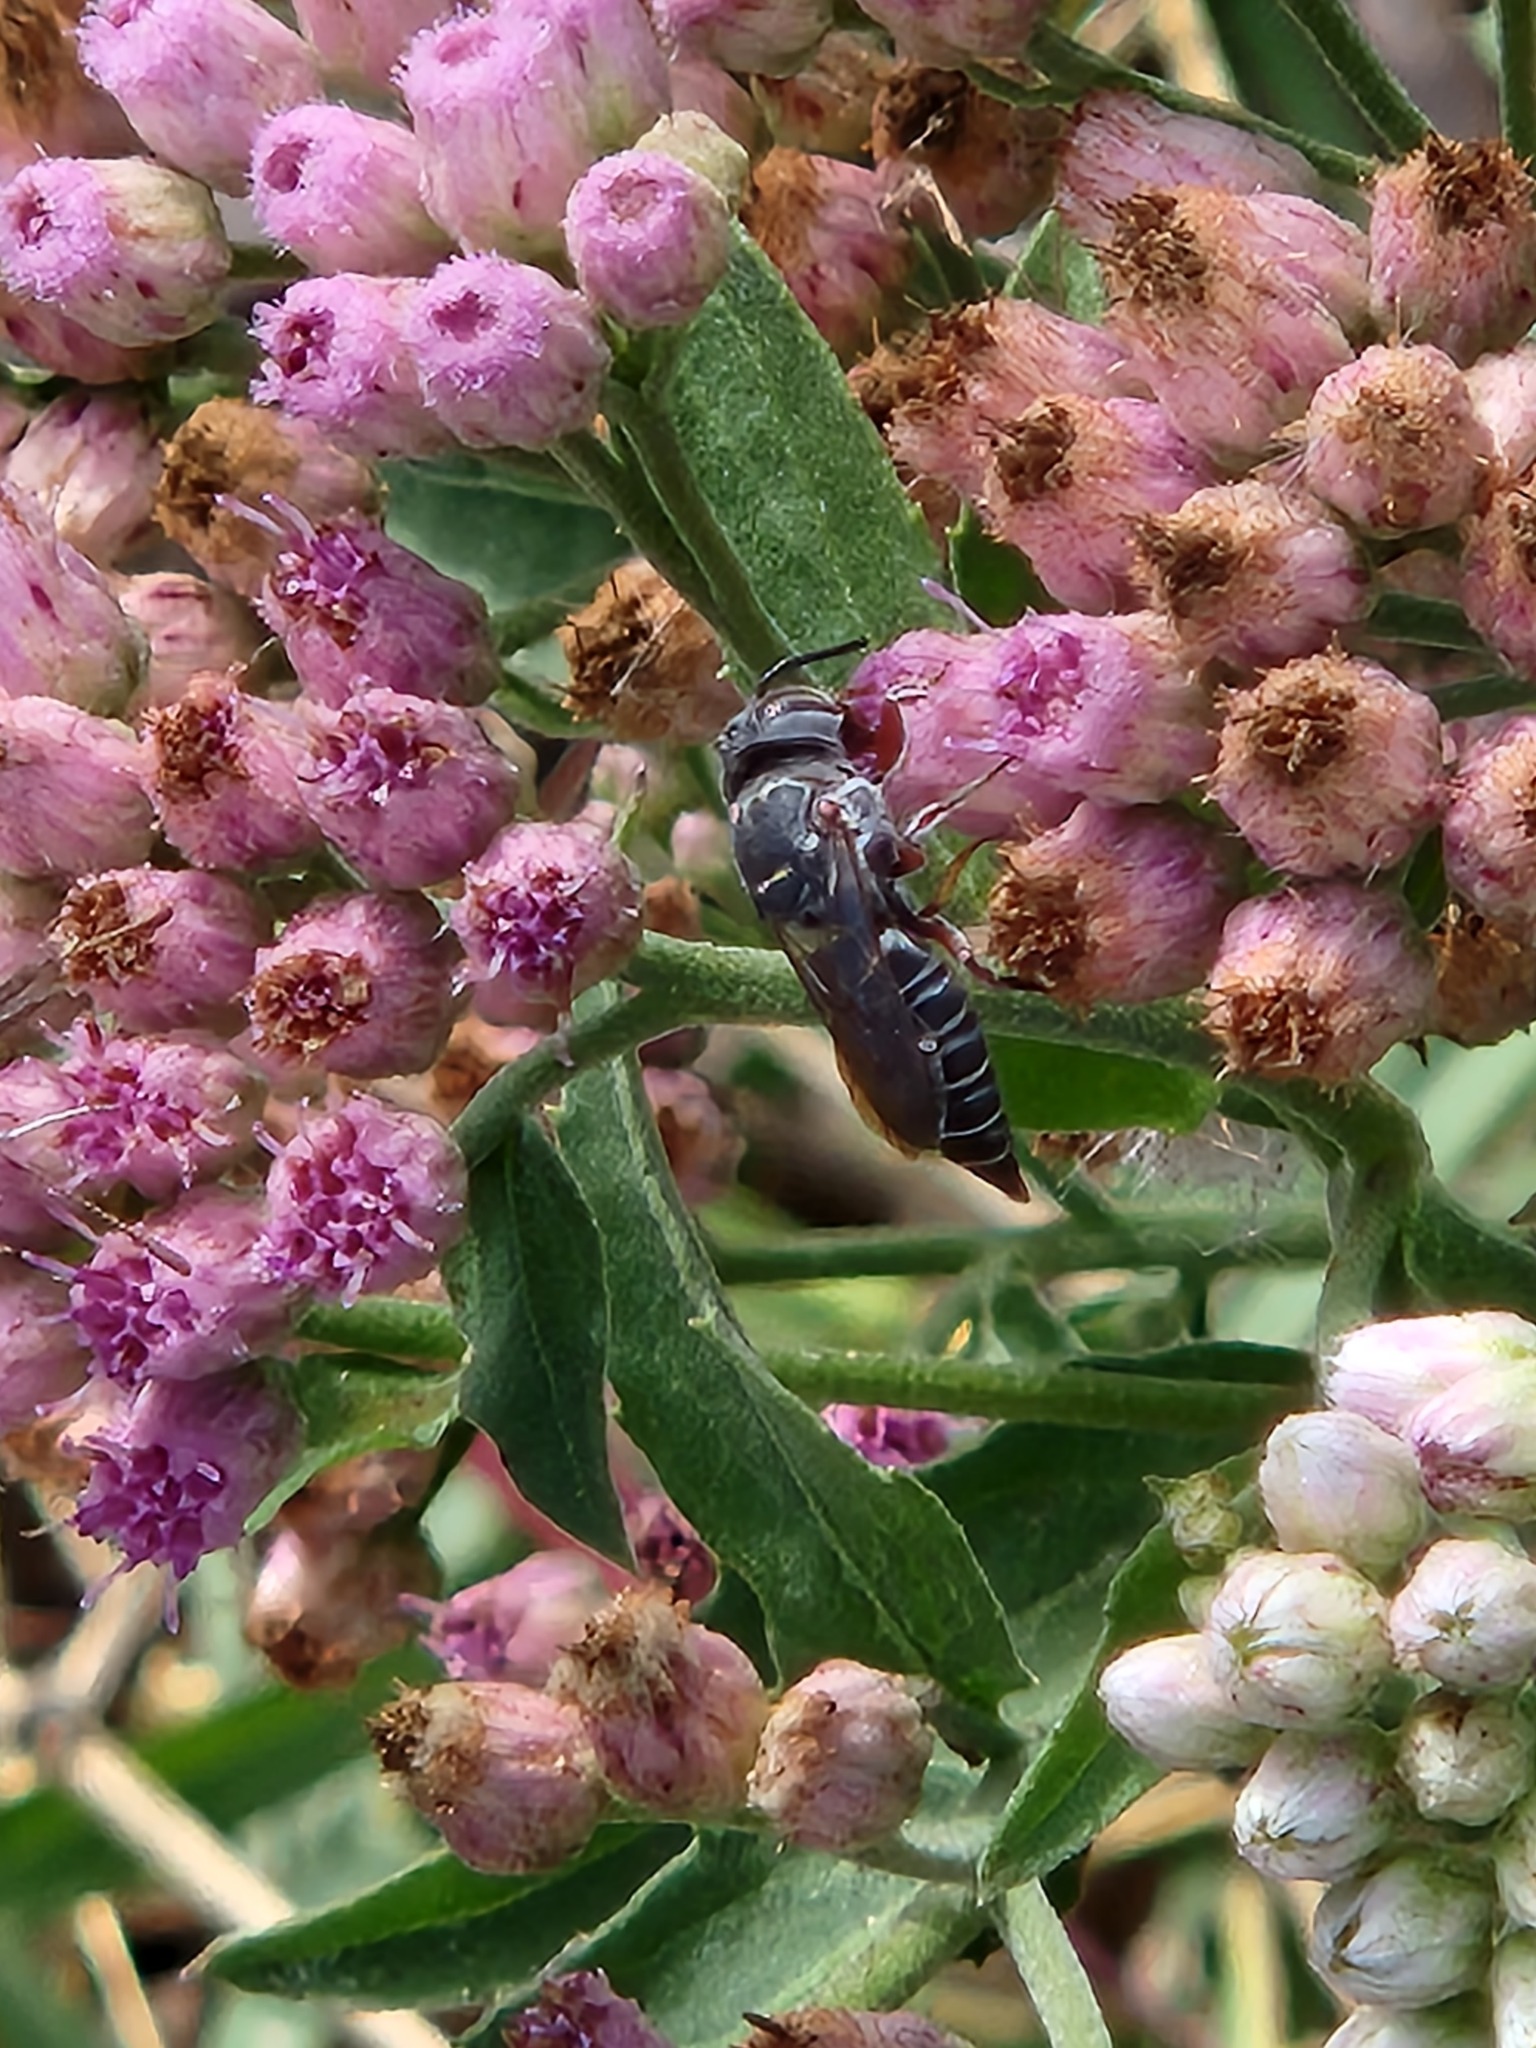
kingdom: Animalia
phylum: Arthropoda
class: Insecta
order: Hymenoptera
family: Megachilidae
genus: Synocoelioxys
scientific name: Synocoelioxys
